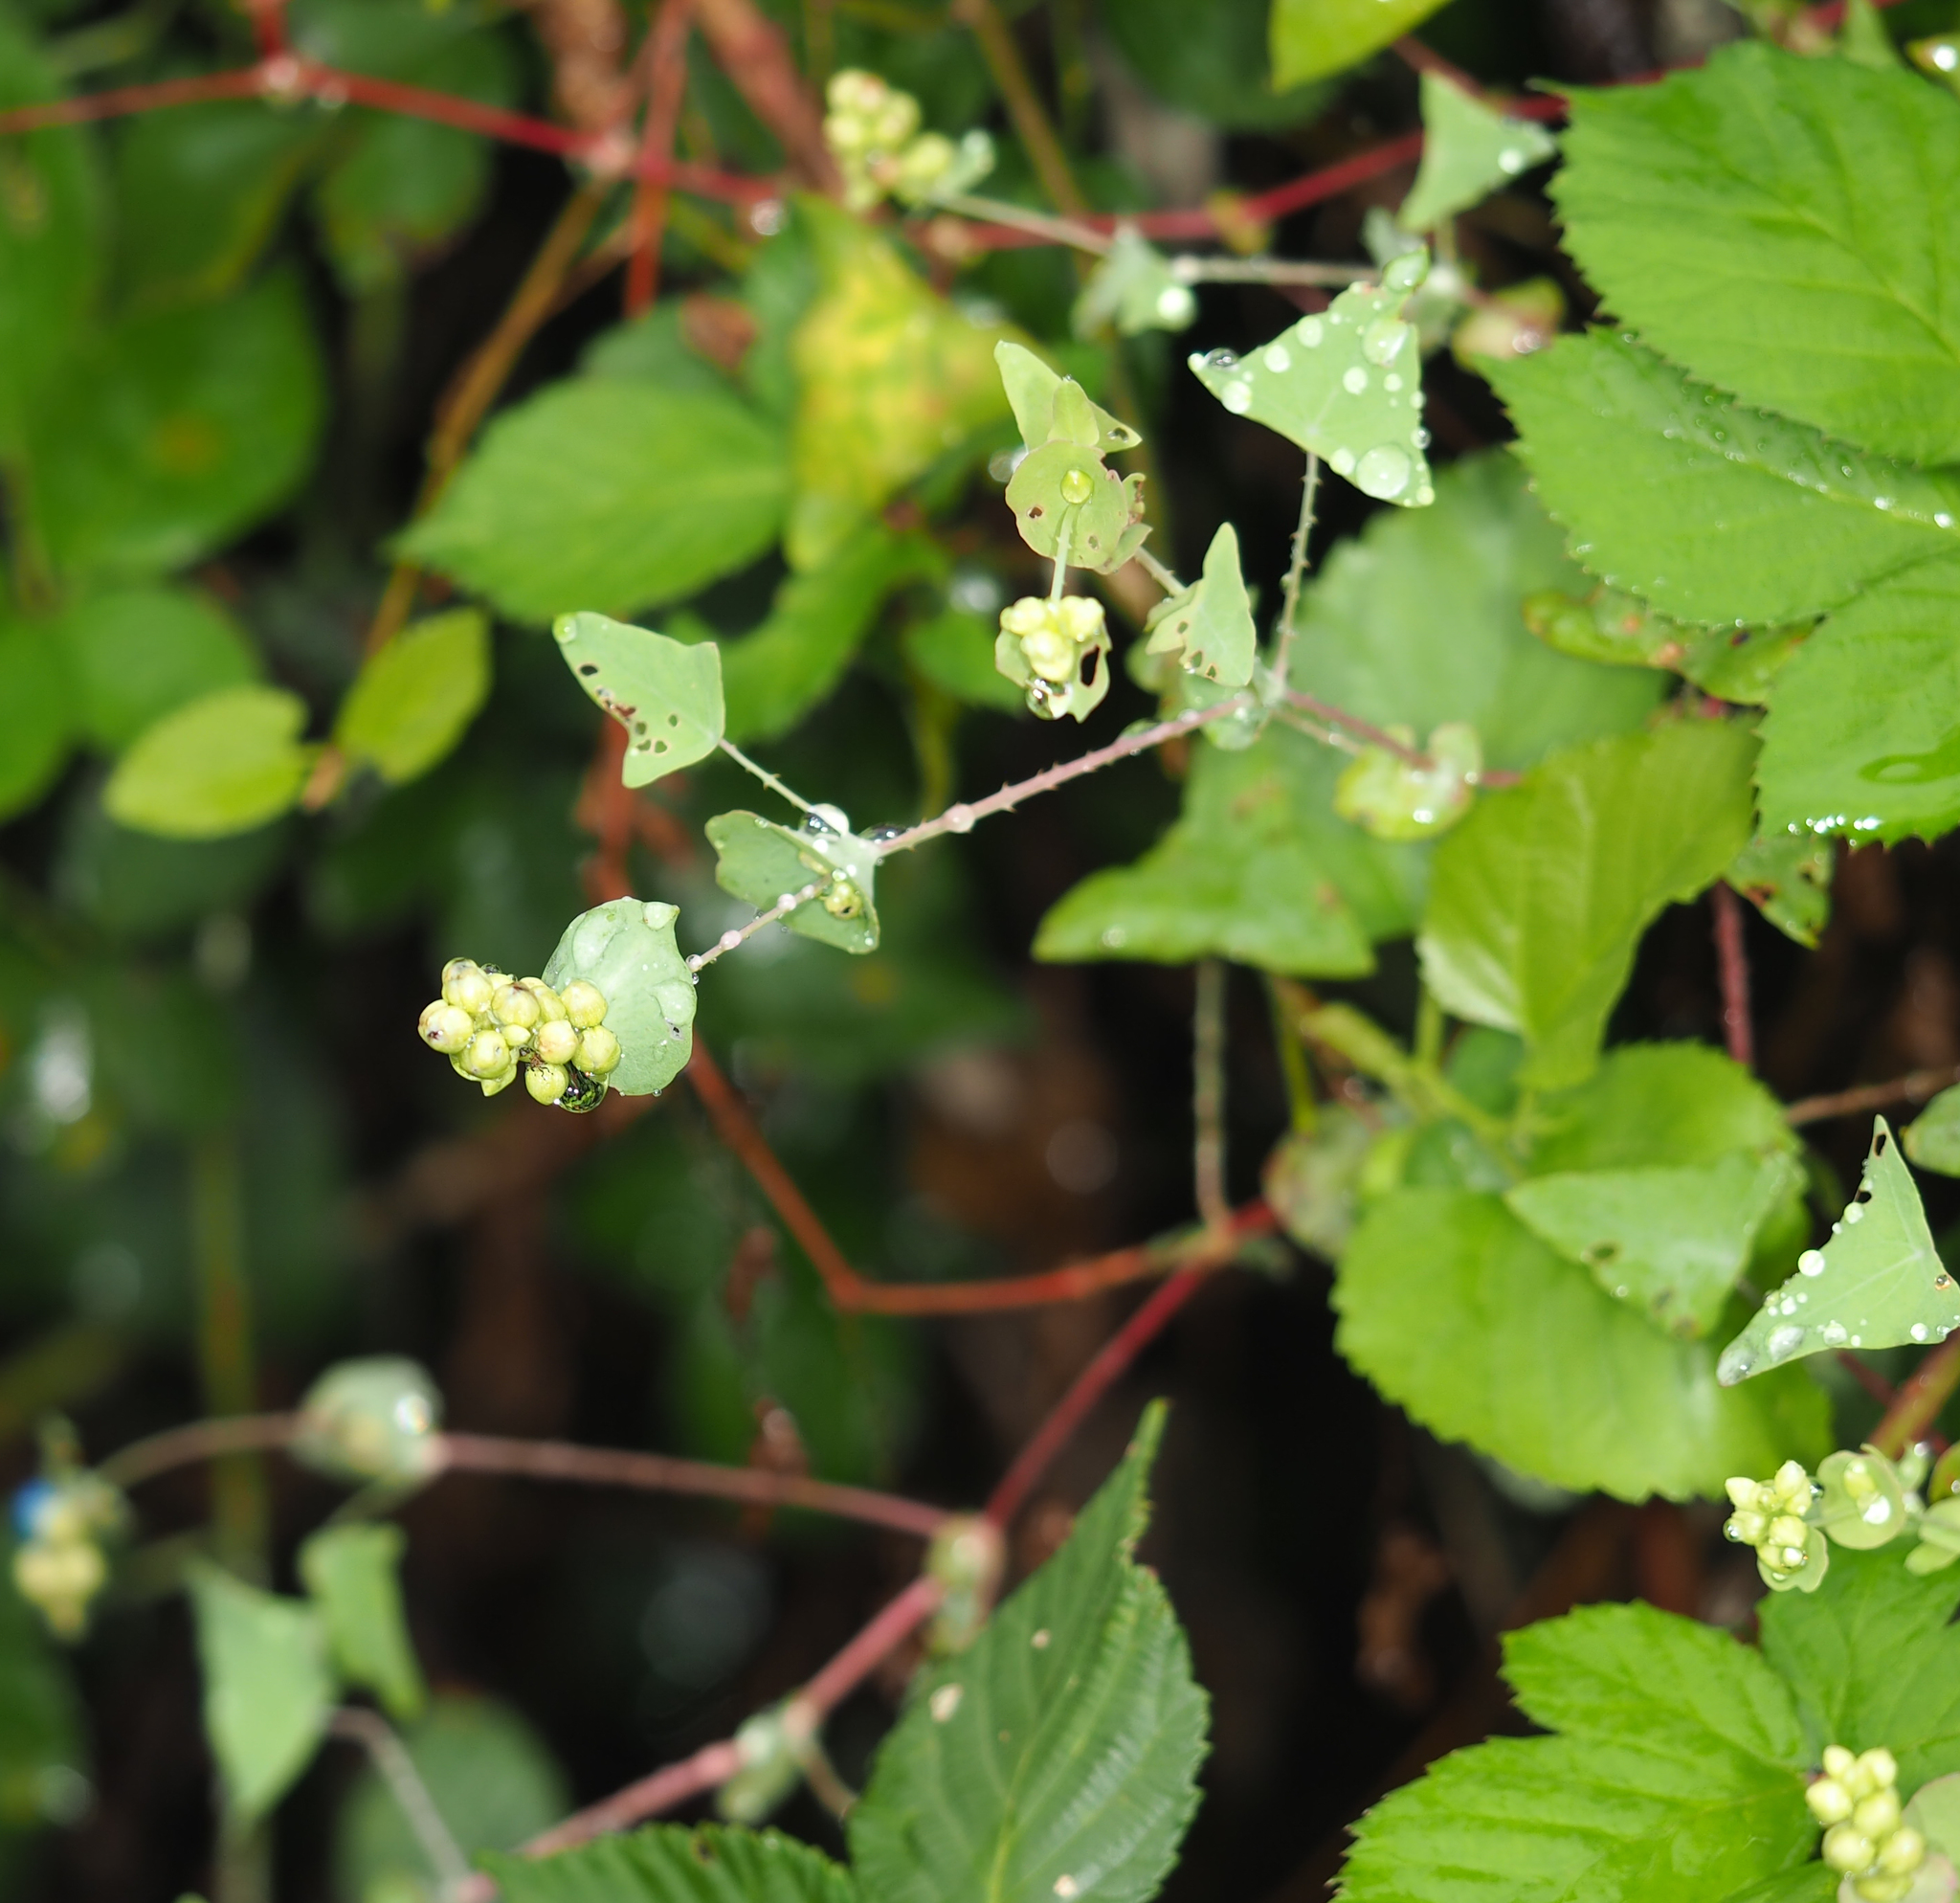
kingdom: Plantae
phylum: Tracheophyta
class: Magnoliopsida
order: Caryophyllales
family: Polygonaceae
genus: Persicaria
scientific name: Persicaria perfoliata
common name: Asiatic tearthumb
